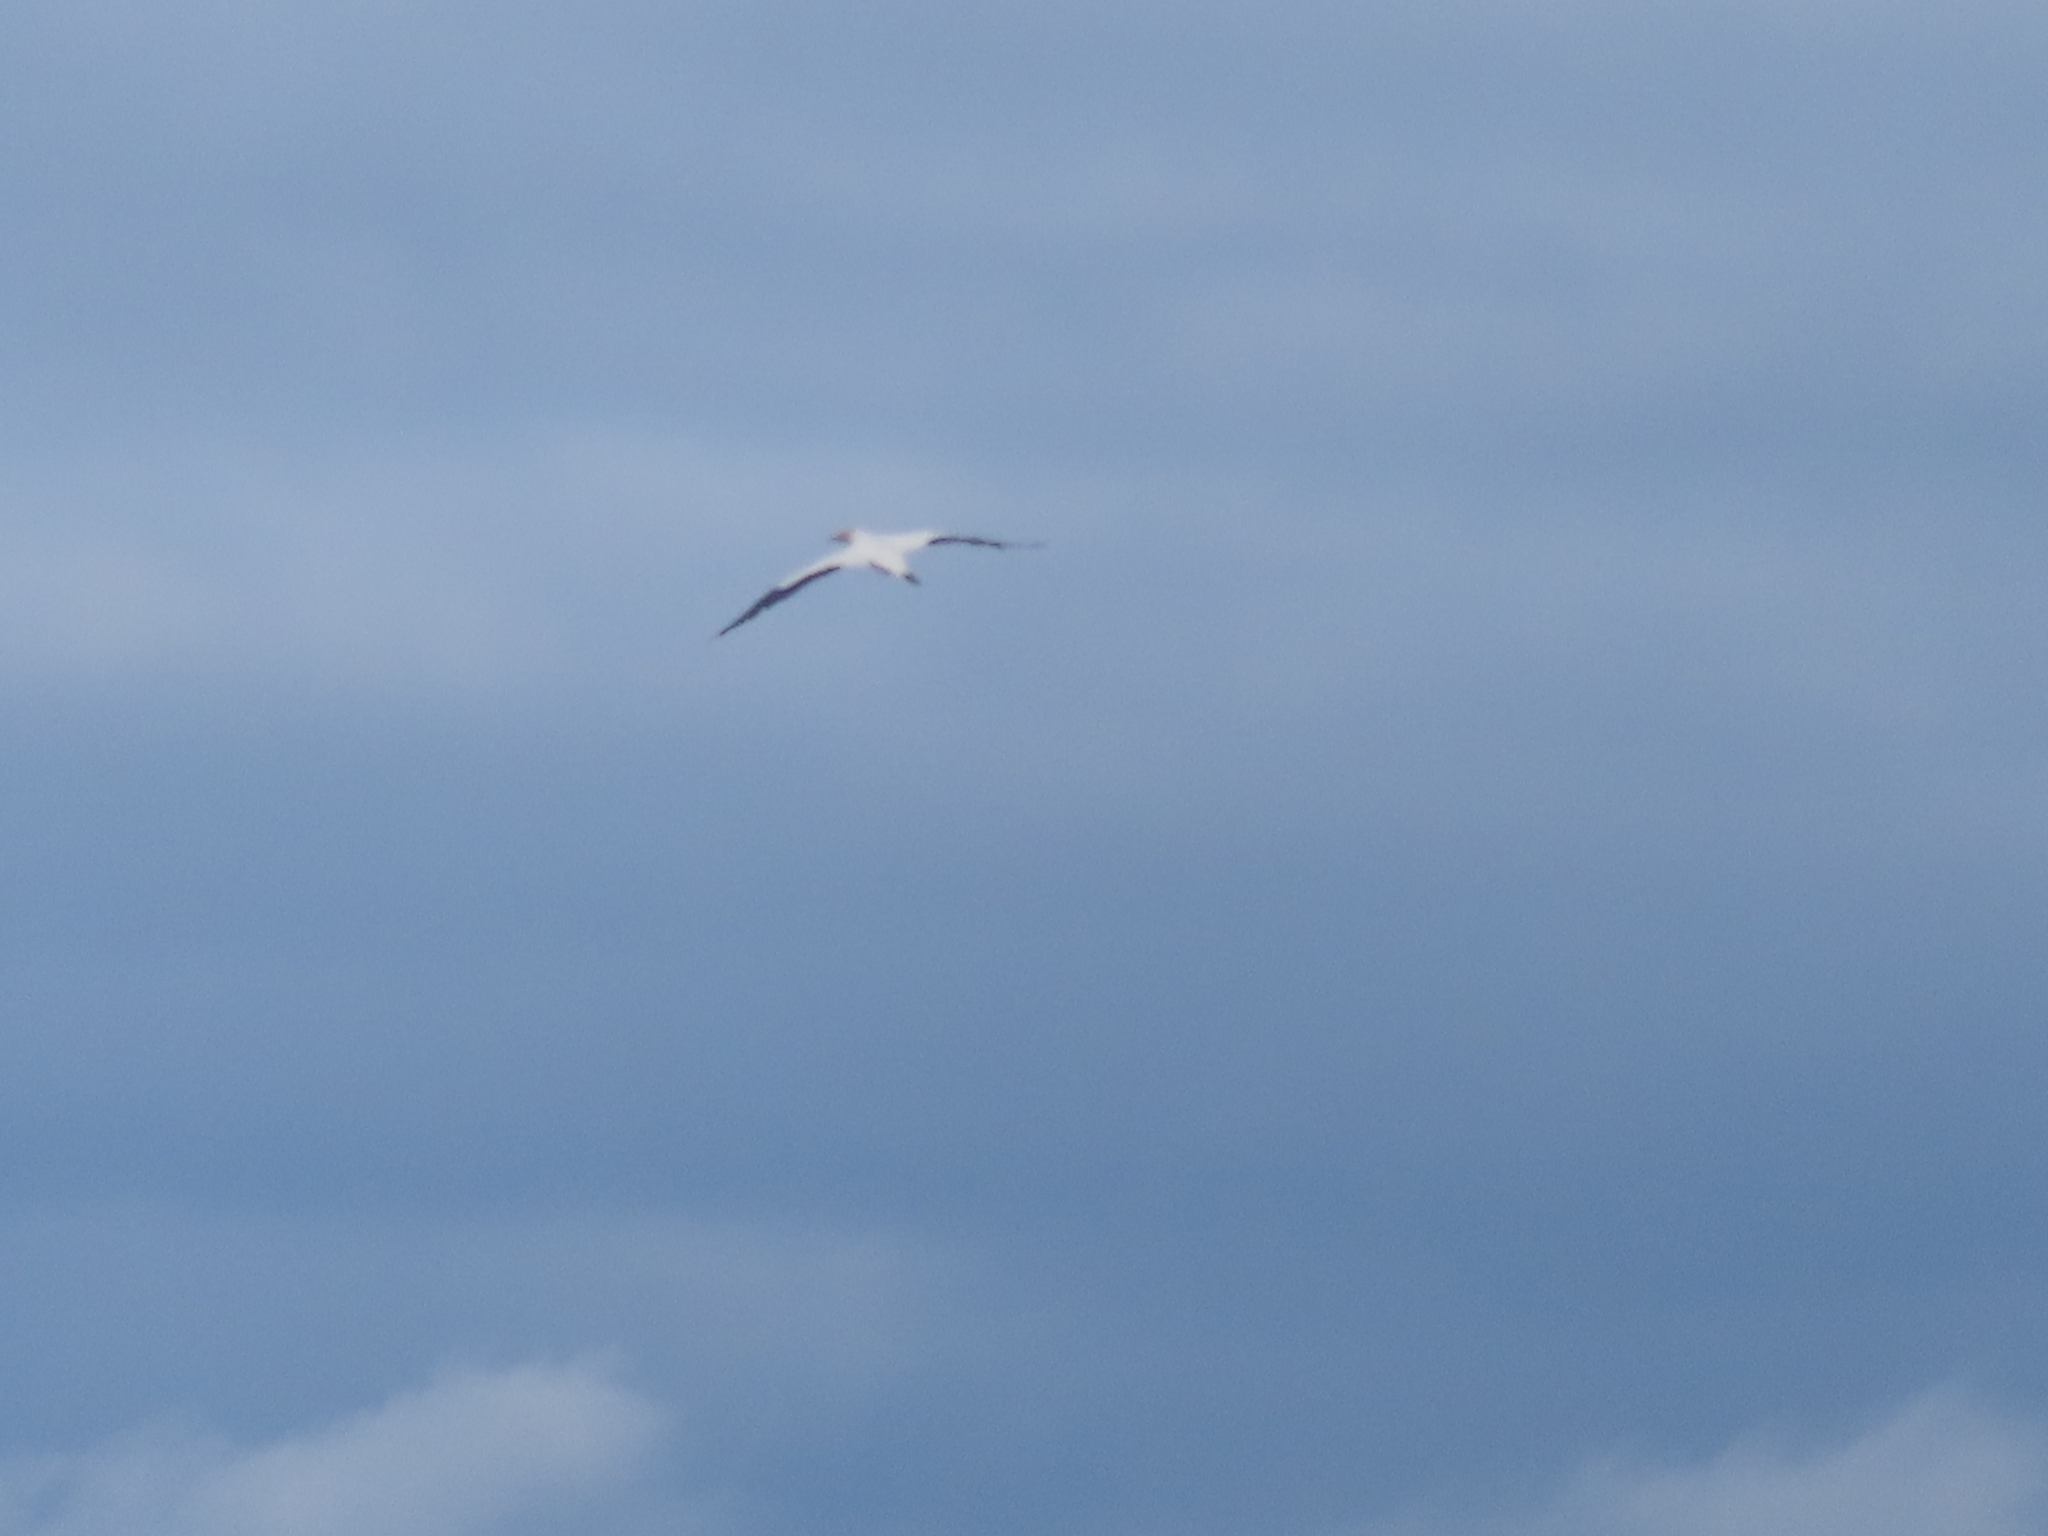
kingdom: Animalia
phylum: Chordata
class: Aves
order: Suliformes
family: Sulidae
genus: Morus
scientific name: Morus serrator
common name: Australasian gannet
